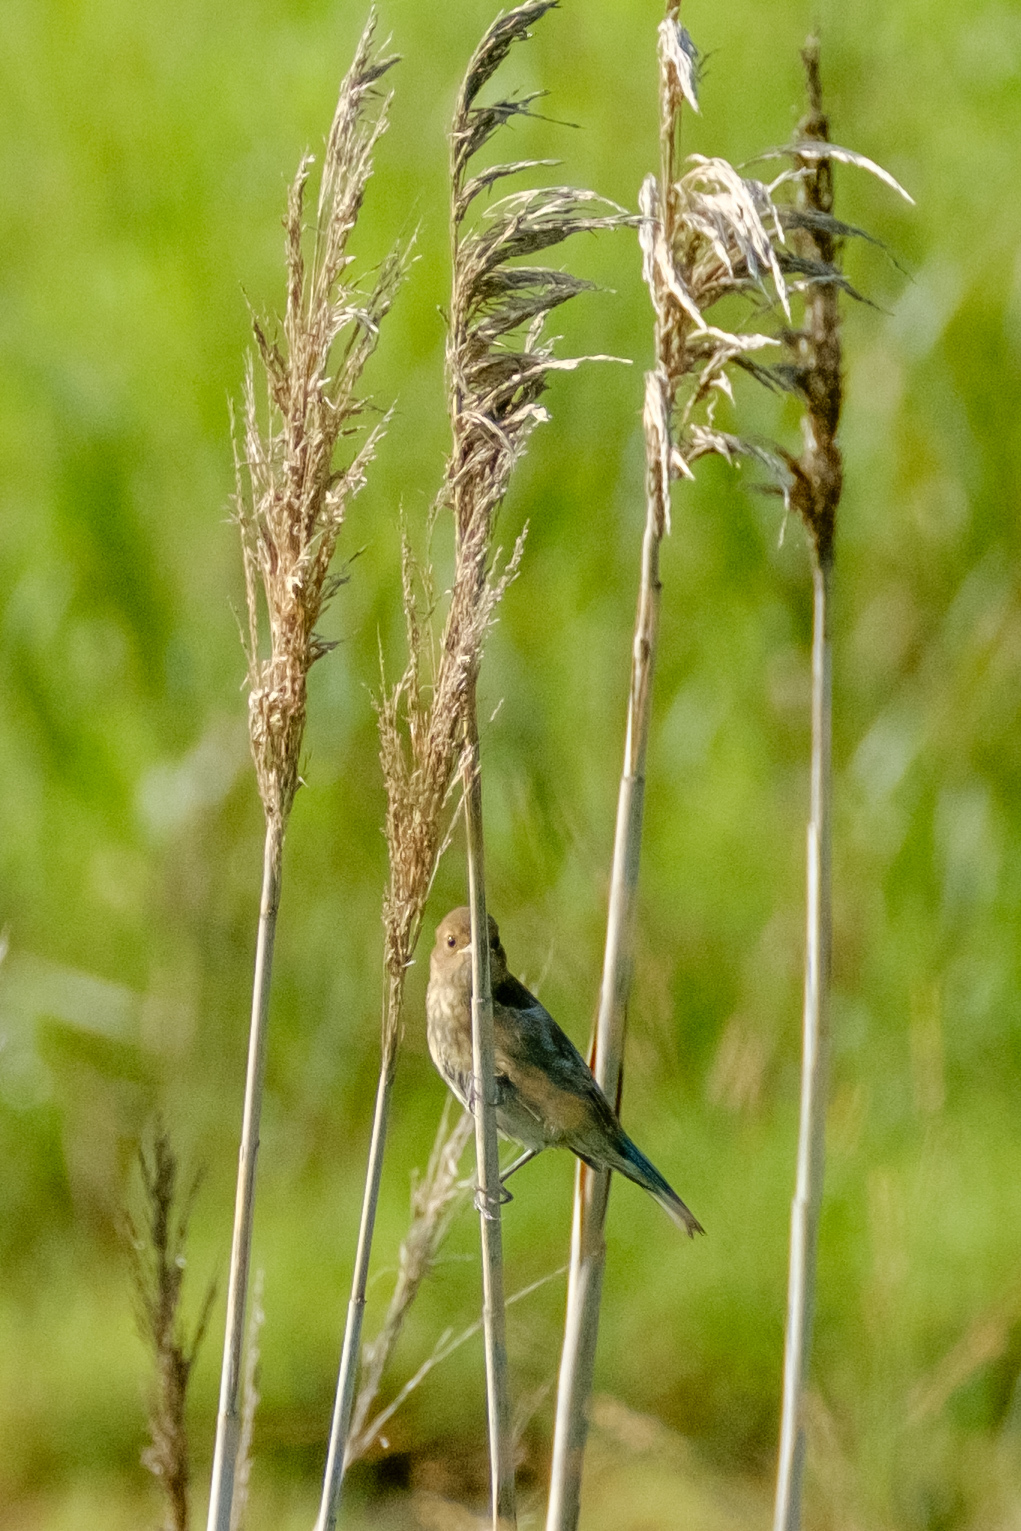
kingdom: Animalia
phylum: Chordata
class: Aves
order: Passeriformes
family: Turdidae
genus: Sialia
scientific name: Sialia sialis
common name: Eastern bluebird
